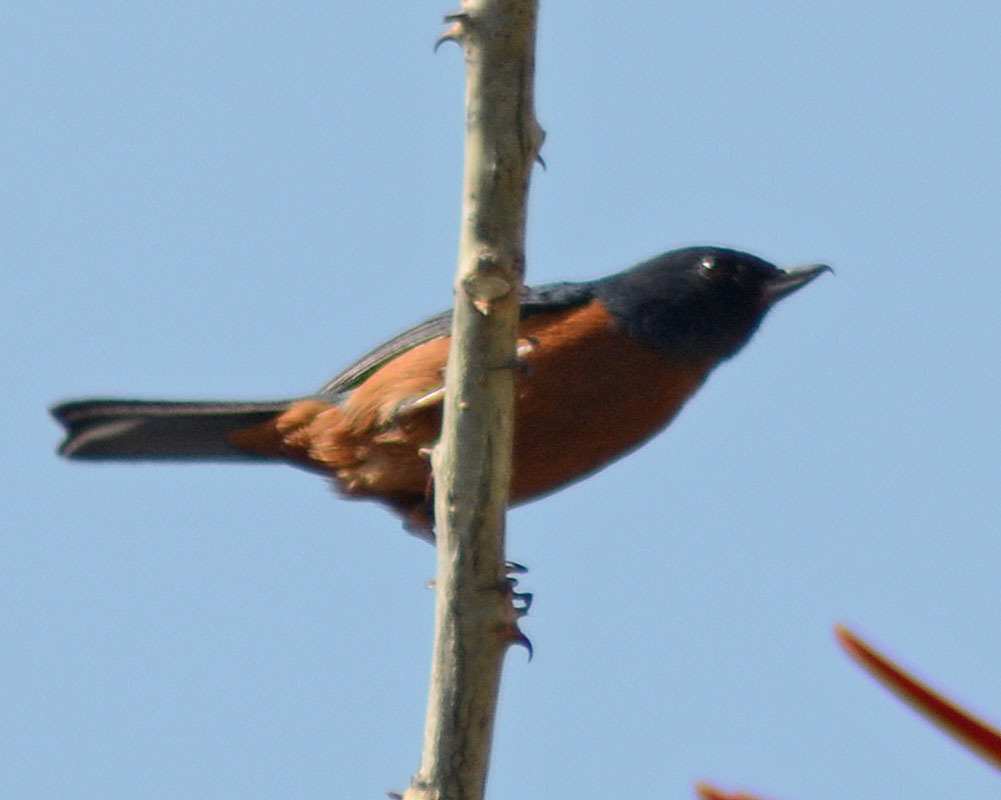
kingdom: Animalia
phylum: Chordata
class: Aves
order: Passeriformes
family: Thraupidae
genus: Diglossa
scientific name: Diglossa baritula
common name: Cinnamon-bellied flowerpiercer
